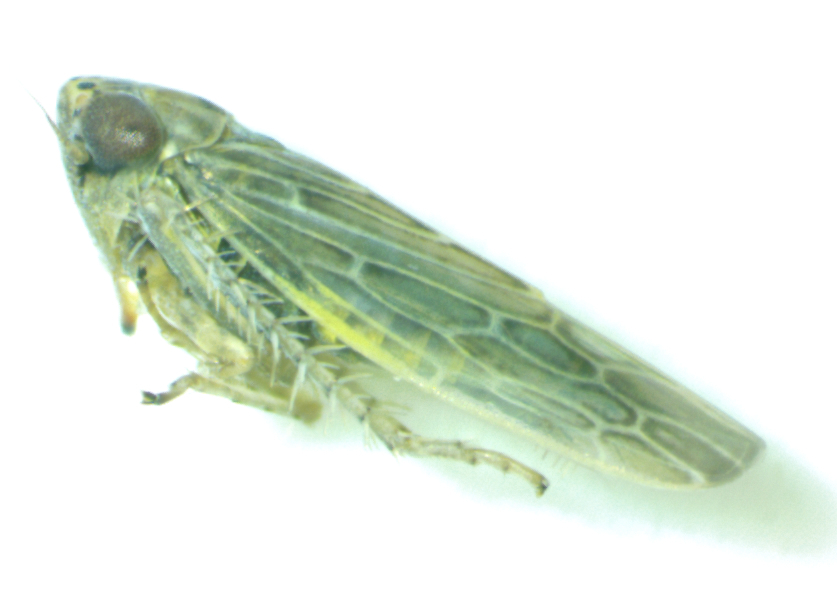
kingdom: Animalia
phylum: Arthropoda
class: Insecta
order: Hemiptera
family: Cicadellidae
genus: Graminella
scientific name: Graminella sonora
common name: Lesser lawn leafhopper
